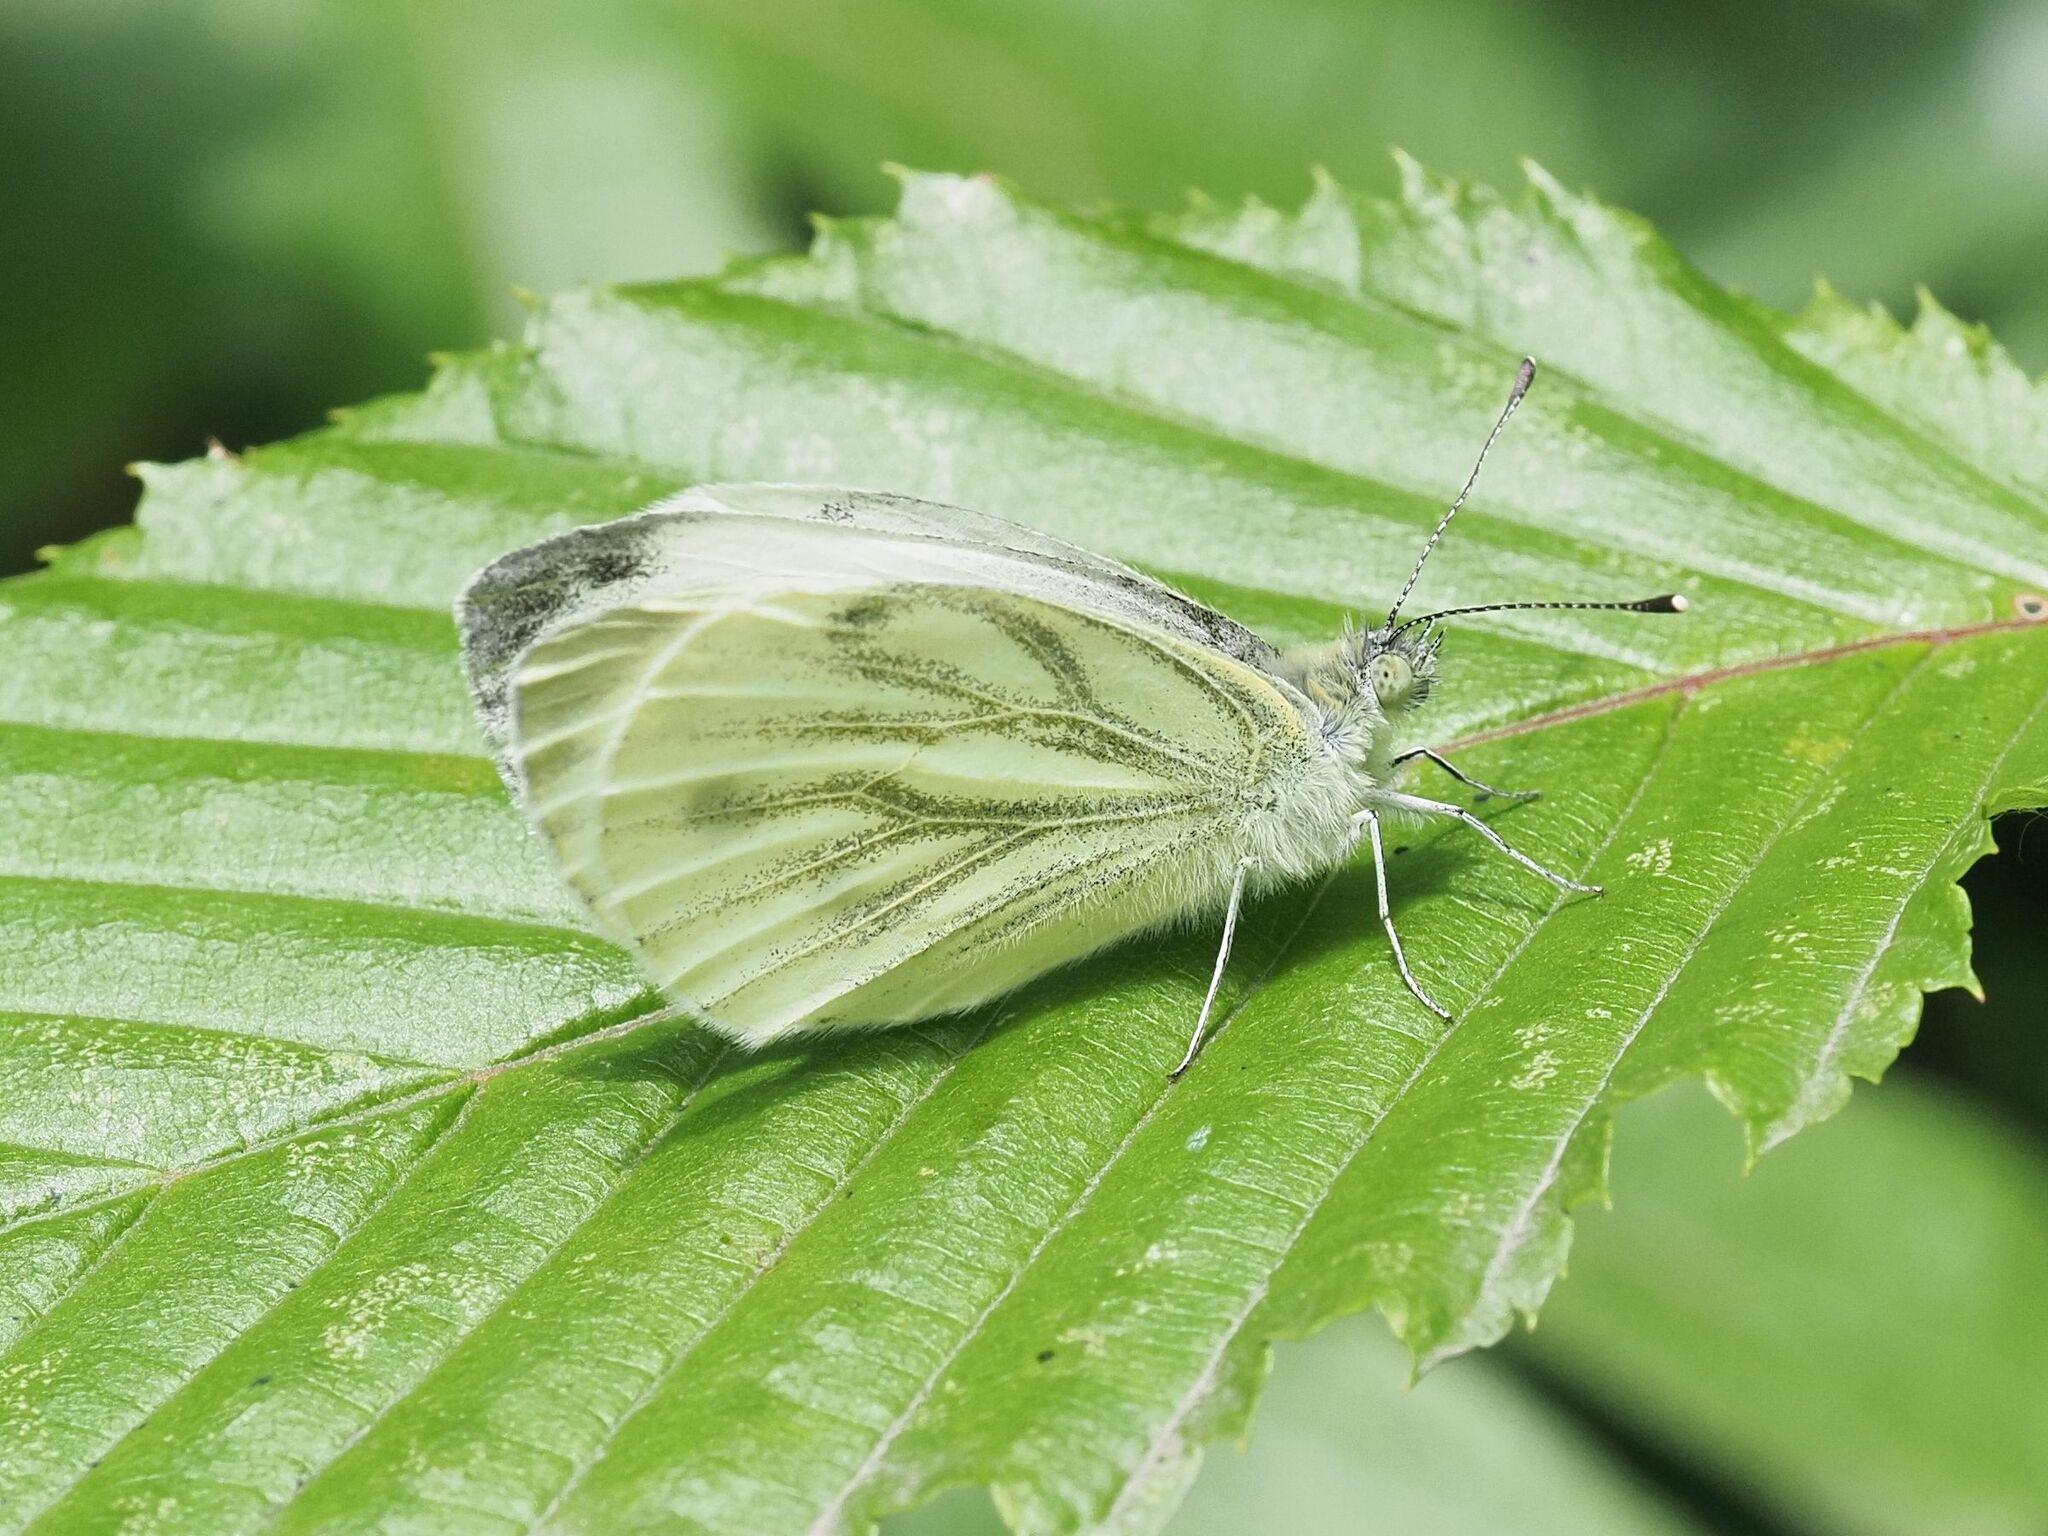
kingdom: Animalia
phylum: Arthropoda
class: Insecta
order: Lepidoptera
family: Pieridae
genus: Pieris
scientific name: Pieris napi
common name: Green-veined white
